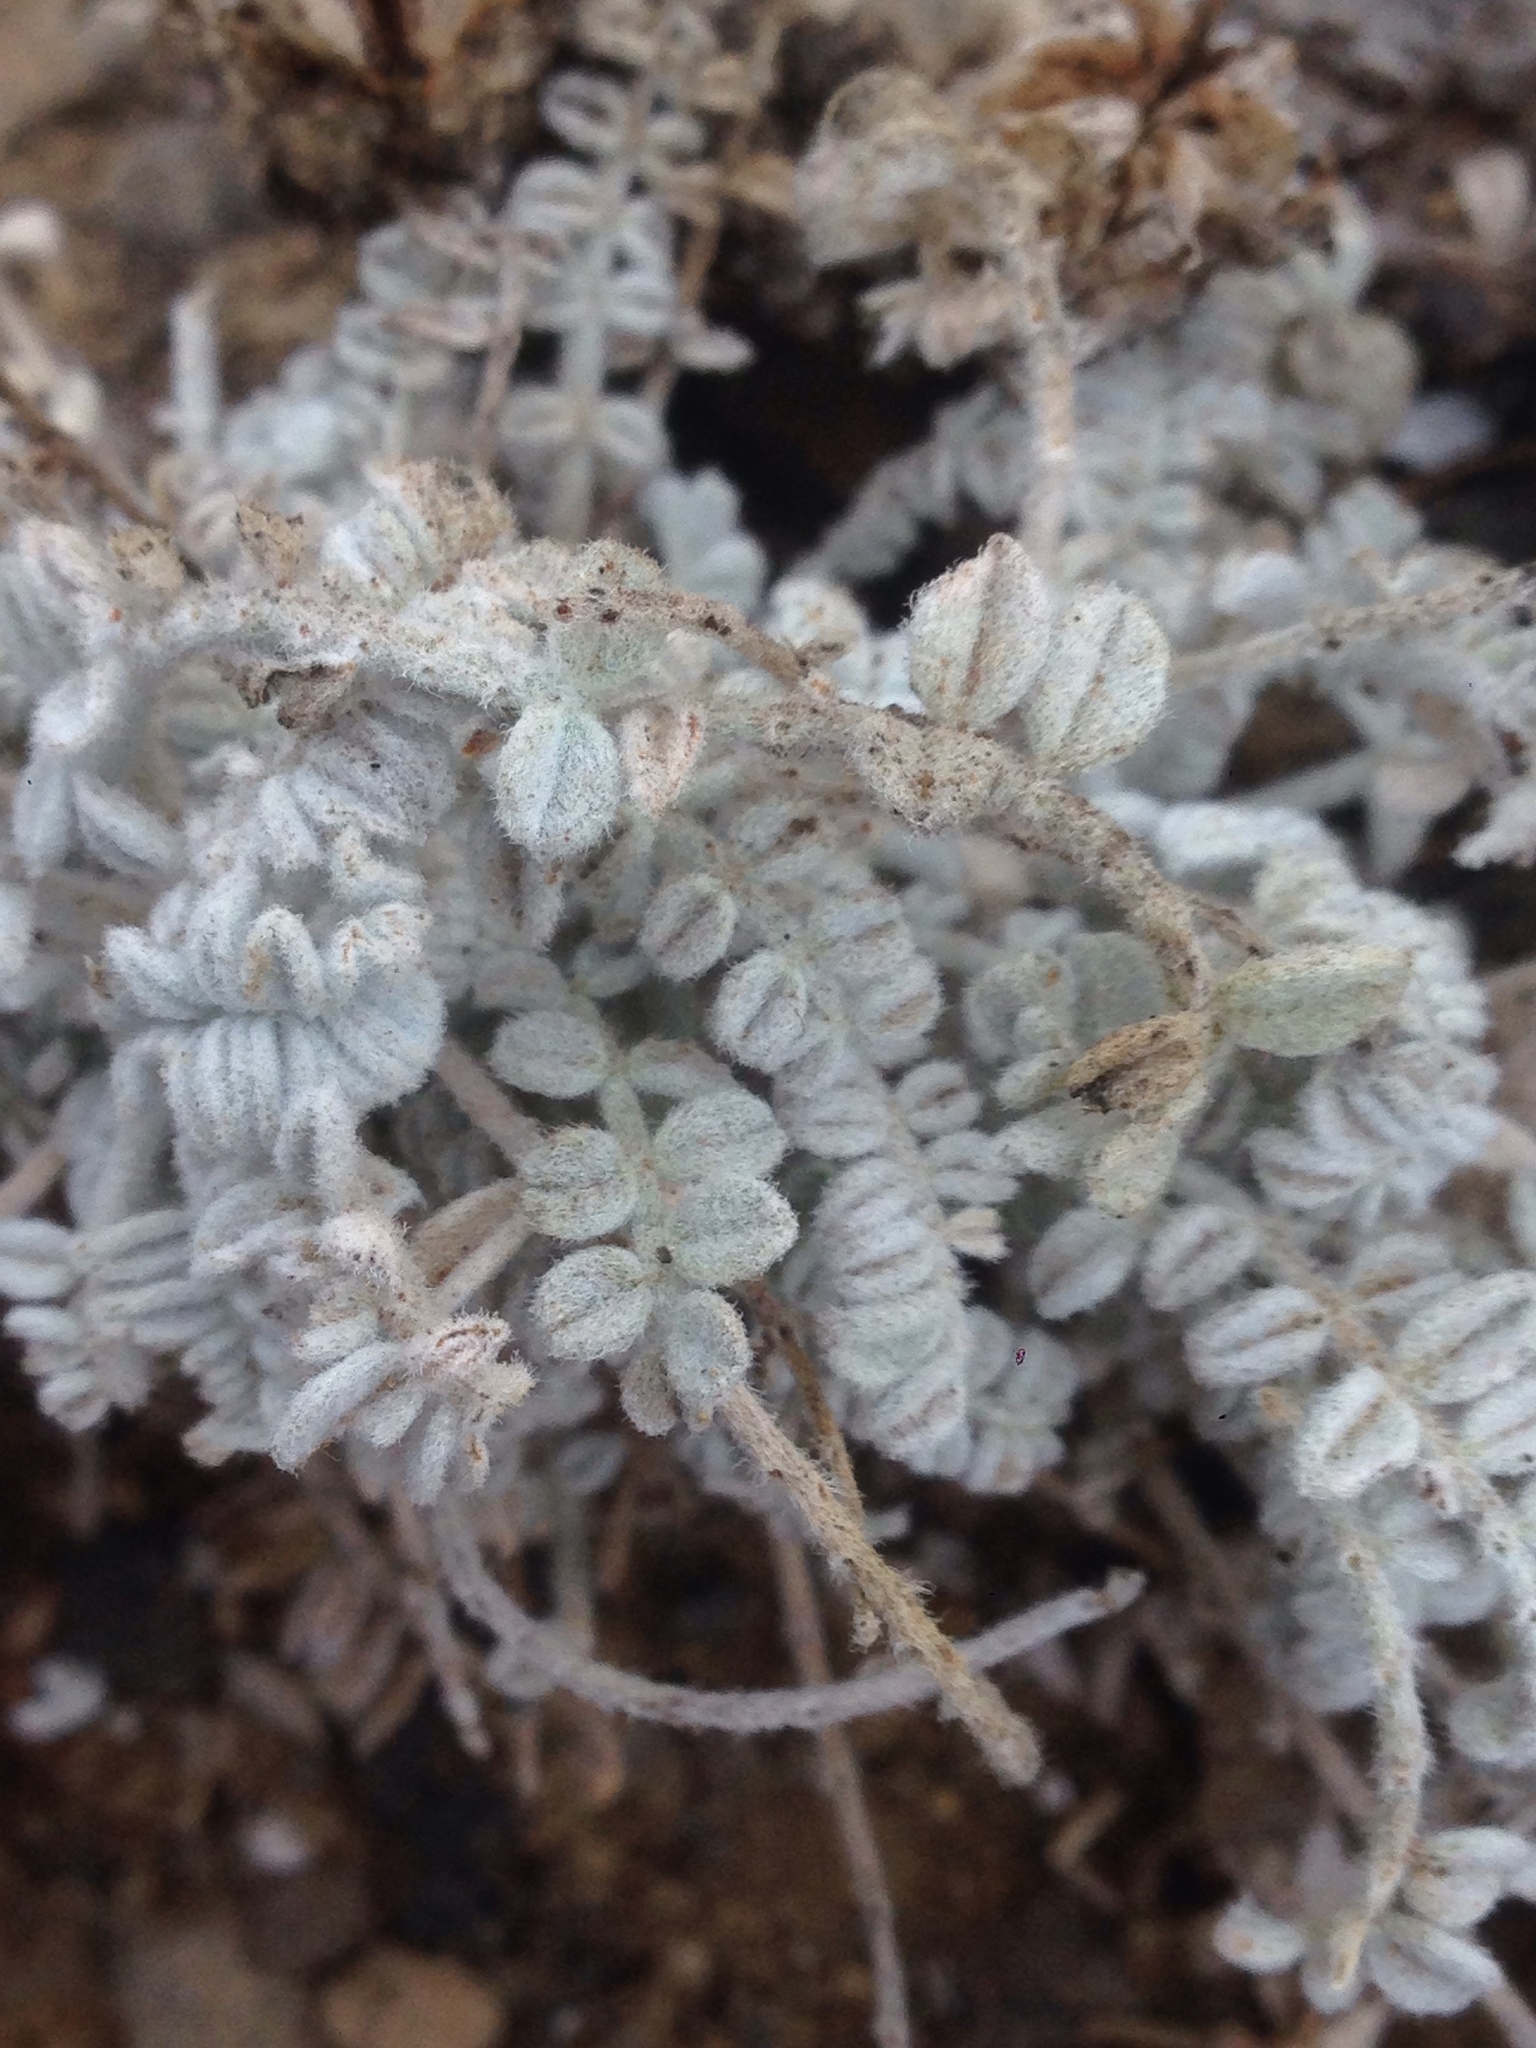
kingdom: Plantae
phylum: Tracheophyta
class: Magnoliopsida
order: Fabales
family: Fabaceae
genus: Astragalus
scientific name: Astragalus traskiae
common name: Trask's milk-vetch
